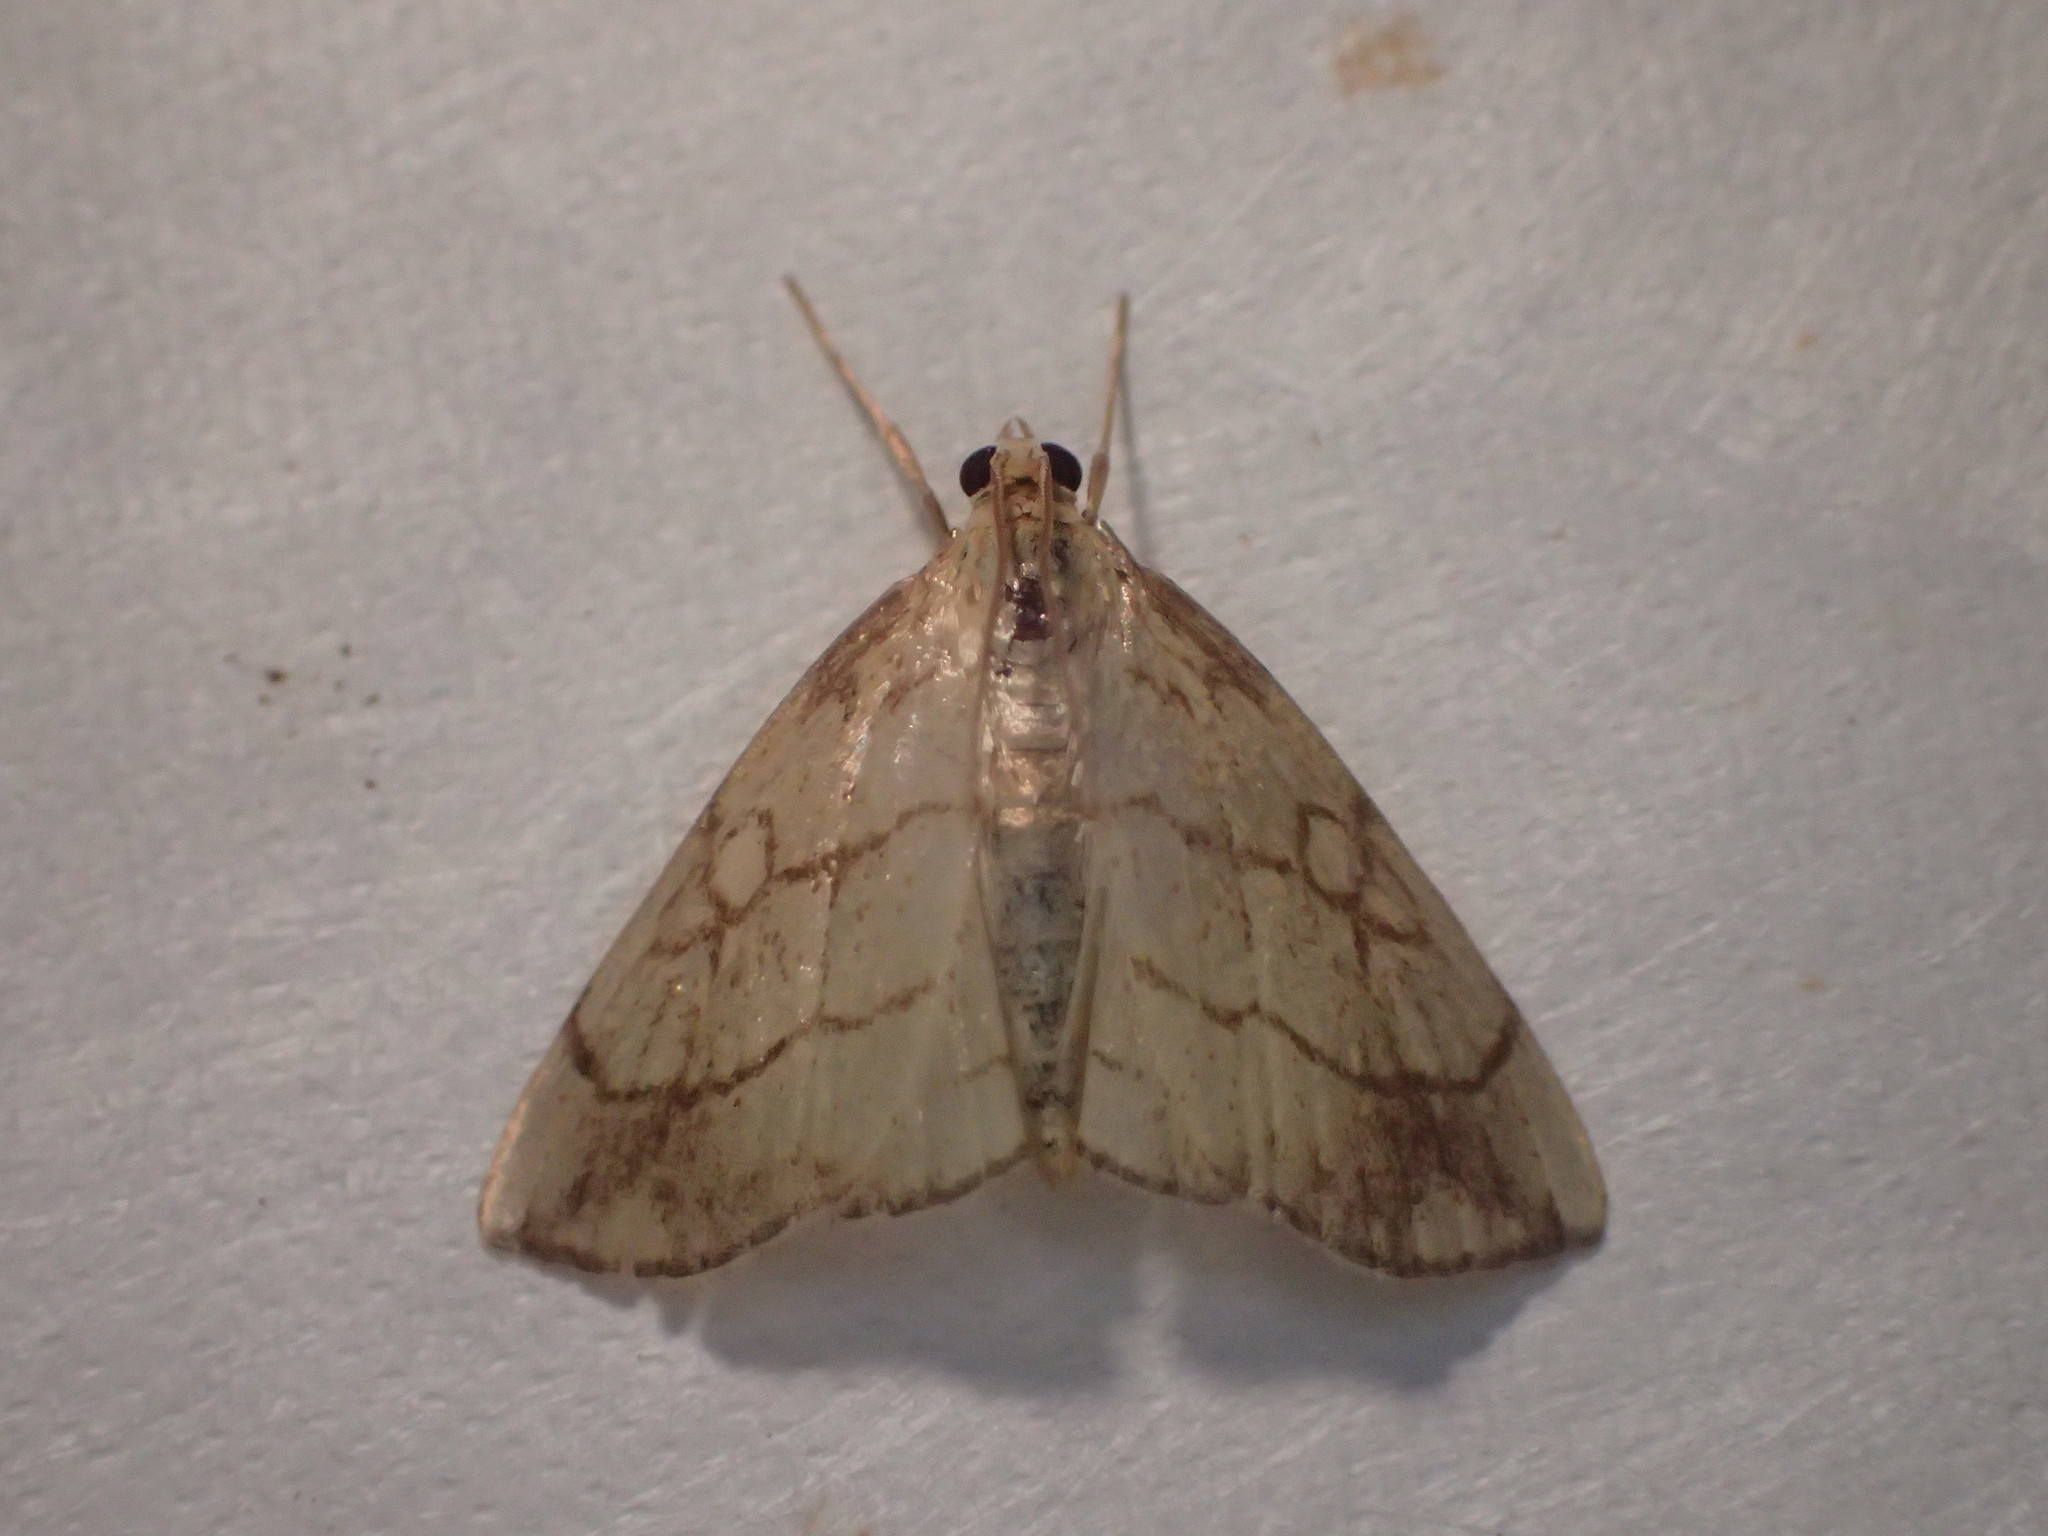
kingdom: Animalia
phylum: Arthropoda
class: Insecta
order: Lepidoptera
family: Crambidae
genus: Evergestis
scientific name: Evergestis pallidata
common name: Chequered pearl
